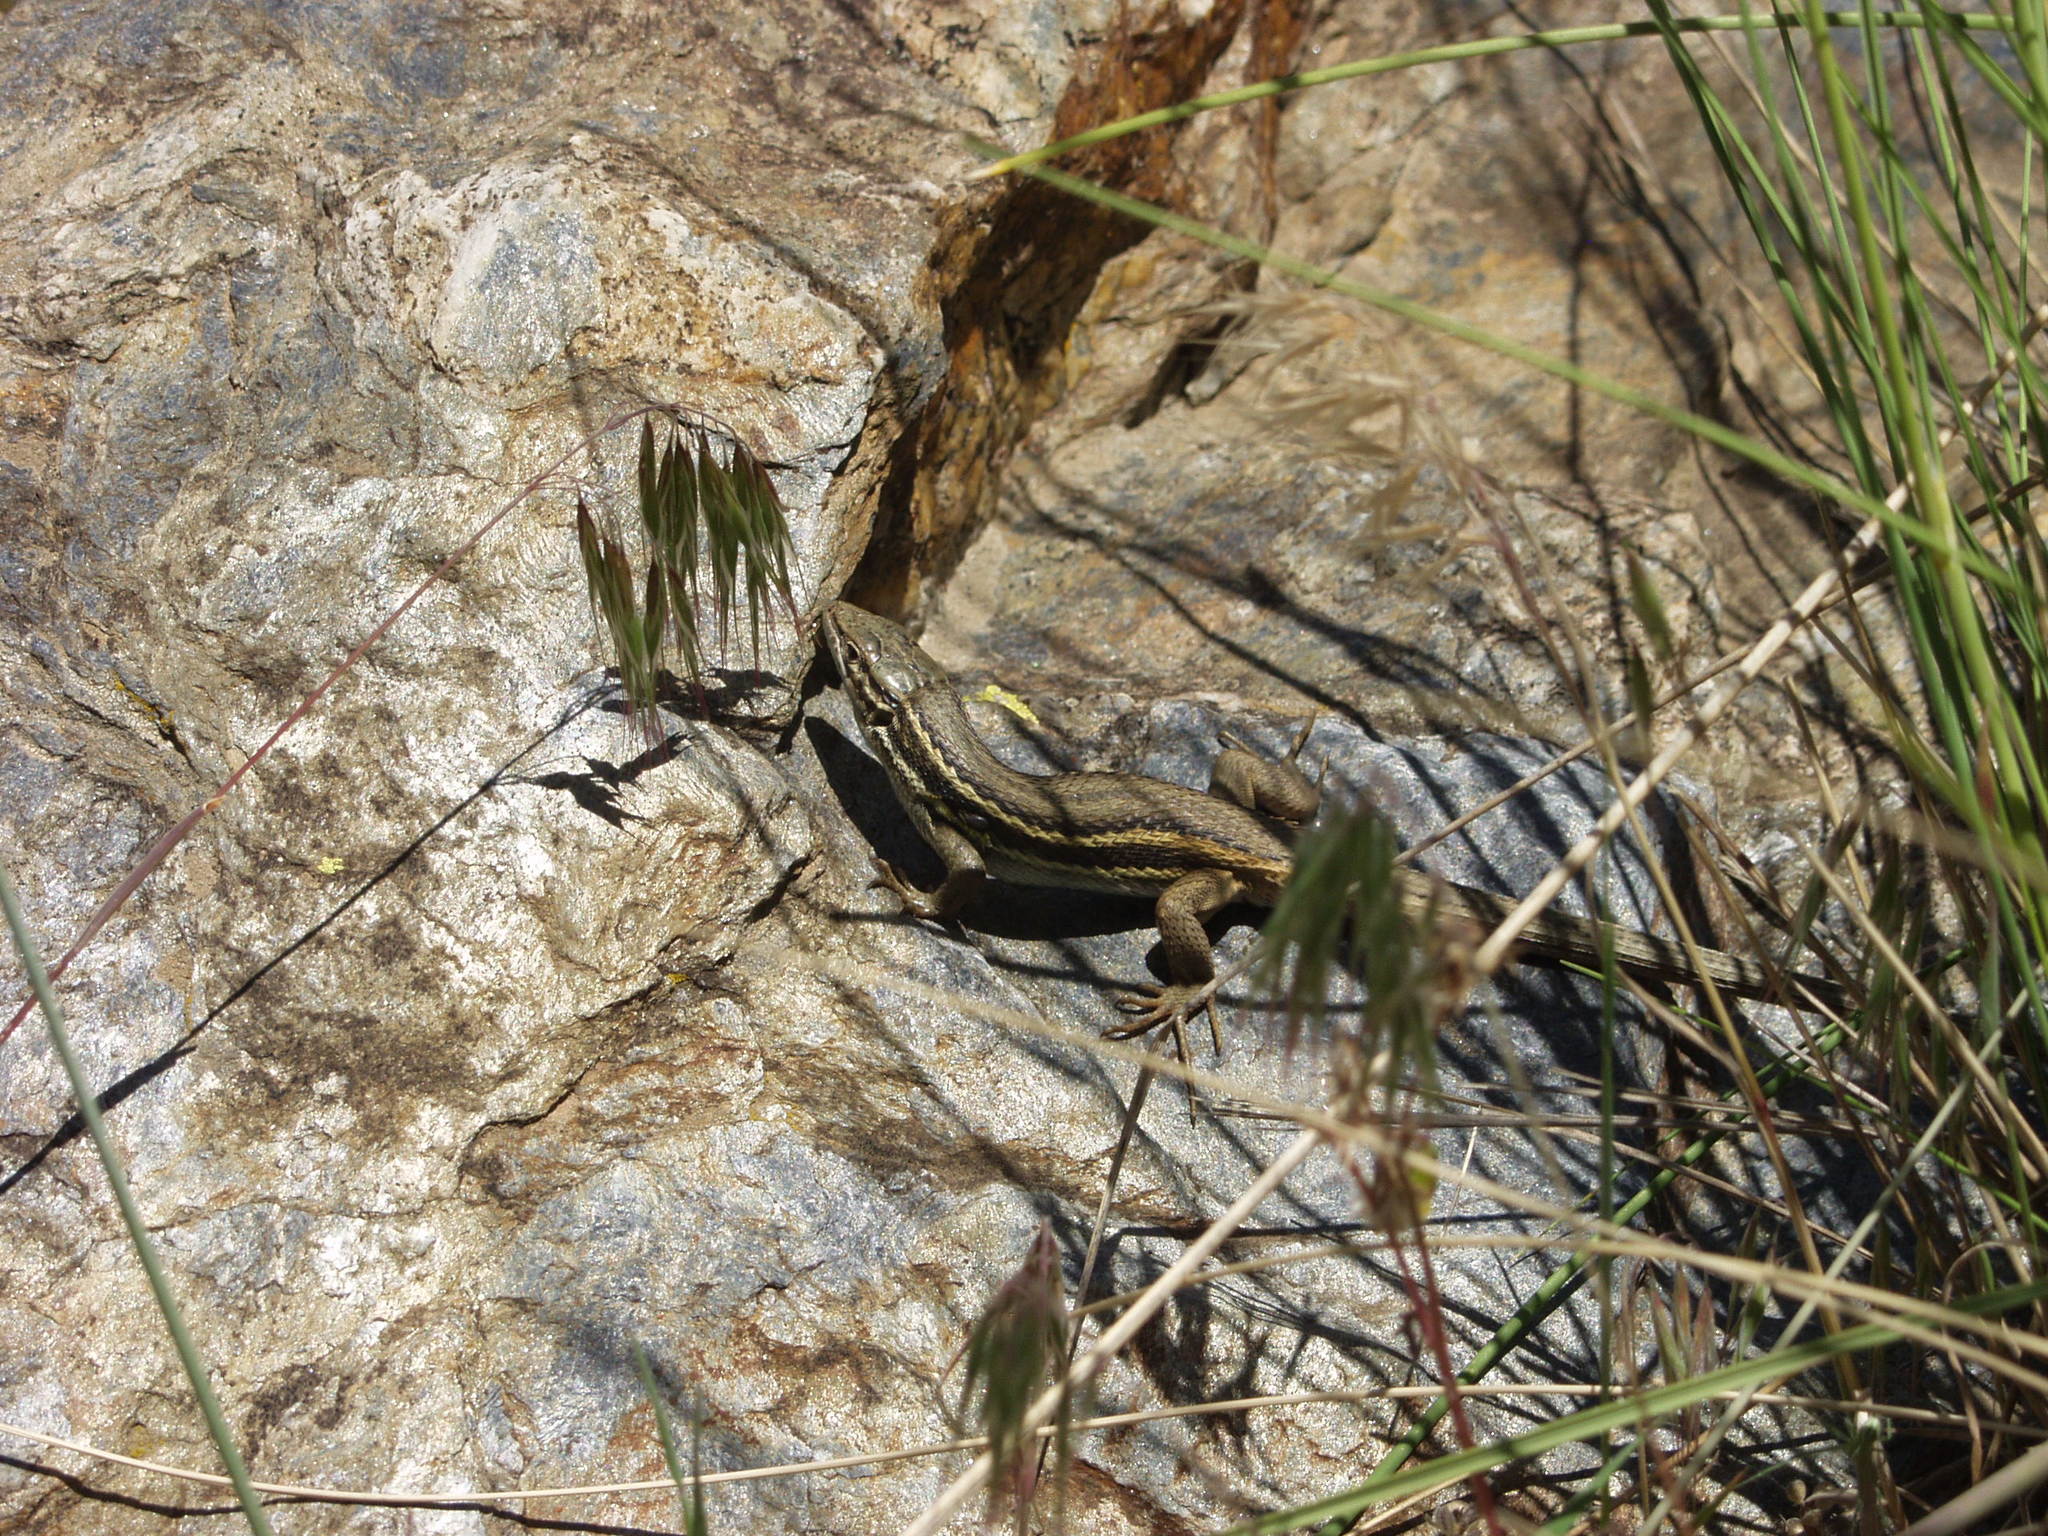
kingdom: Animalia
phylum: Chordata
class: Squamata
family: Lacertidae
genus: Psammodromus
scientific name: Psammodromus algirus
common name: Algerian psammodromus
